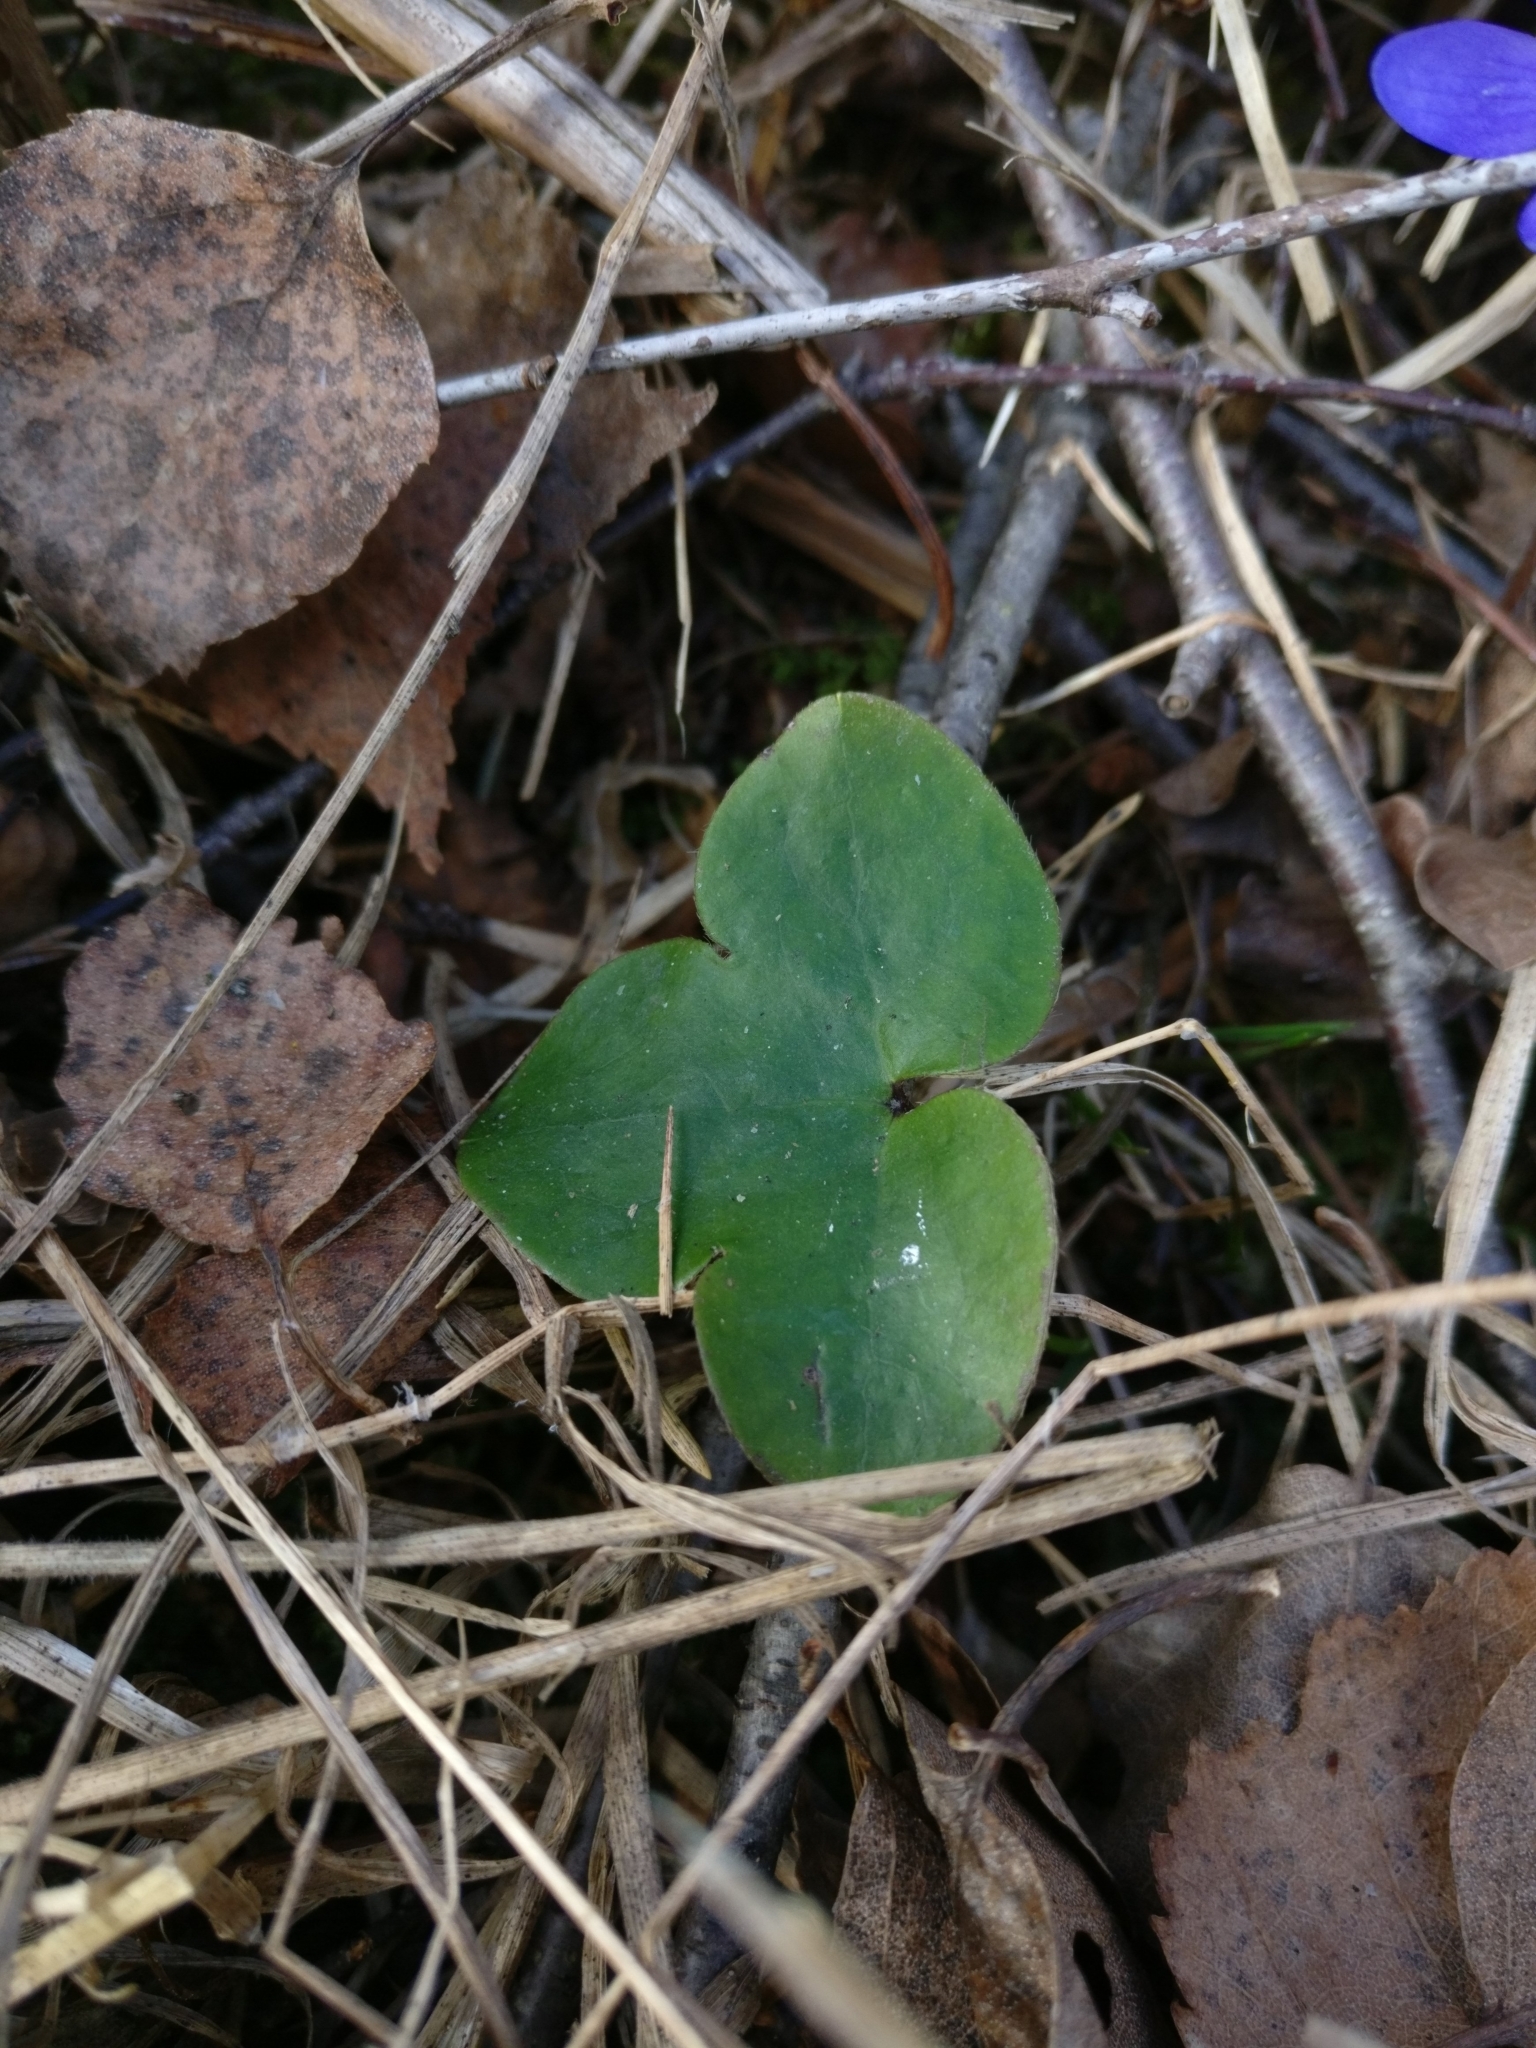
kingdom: Plantae
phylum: Tracheophyta
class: Magnoliopsida
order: Ranunculales
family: Ranunculaceae
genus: Hepatica
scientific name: Hepatica nobilis
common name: Liverleaf
